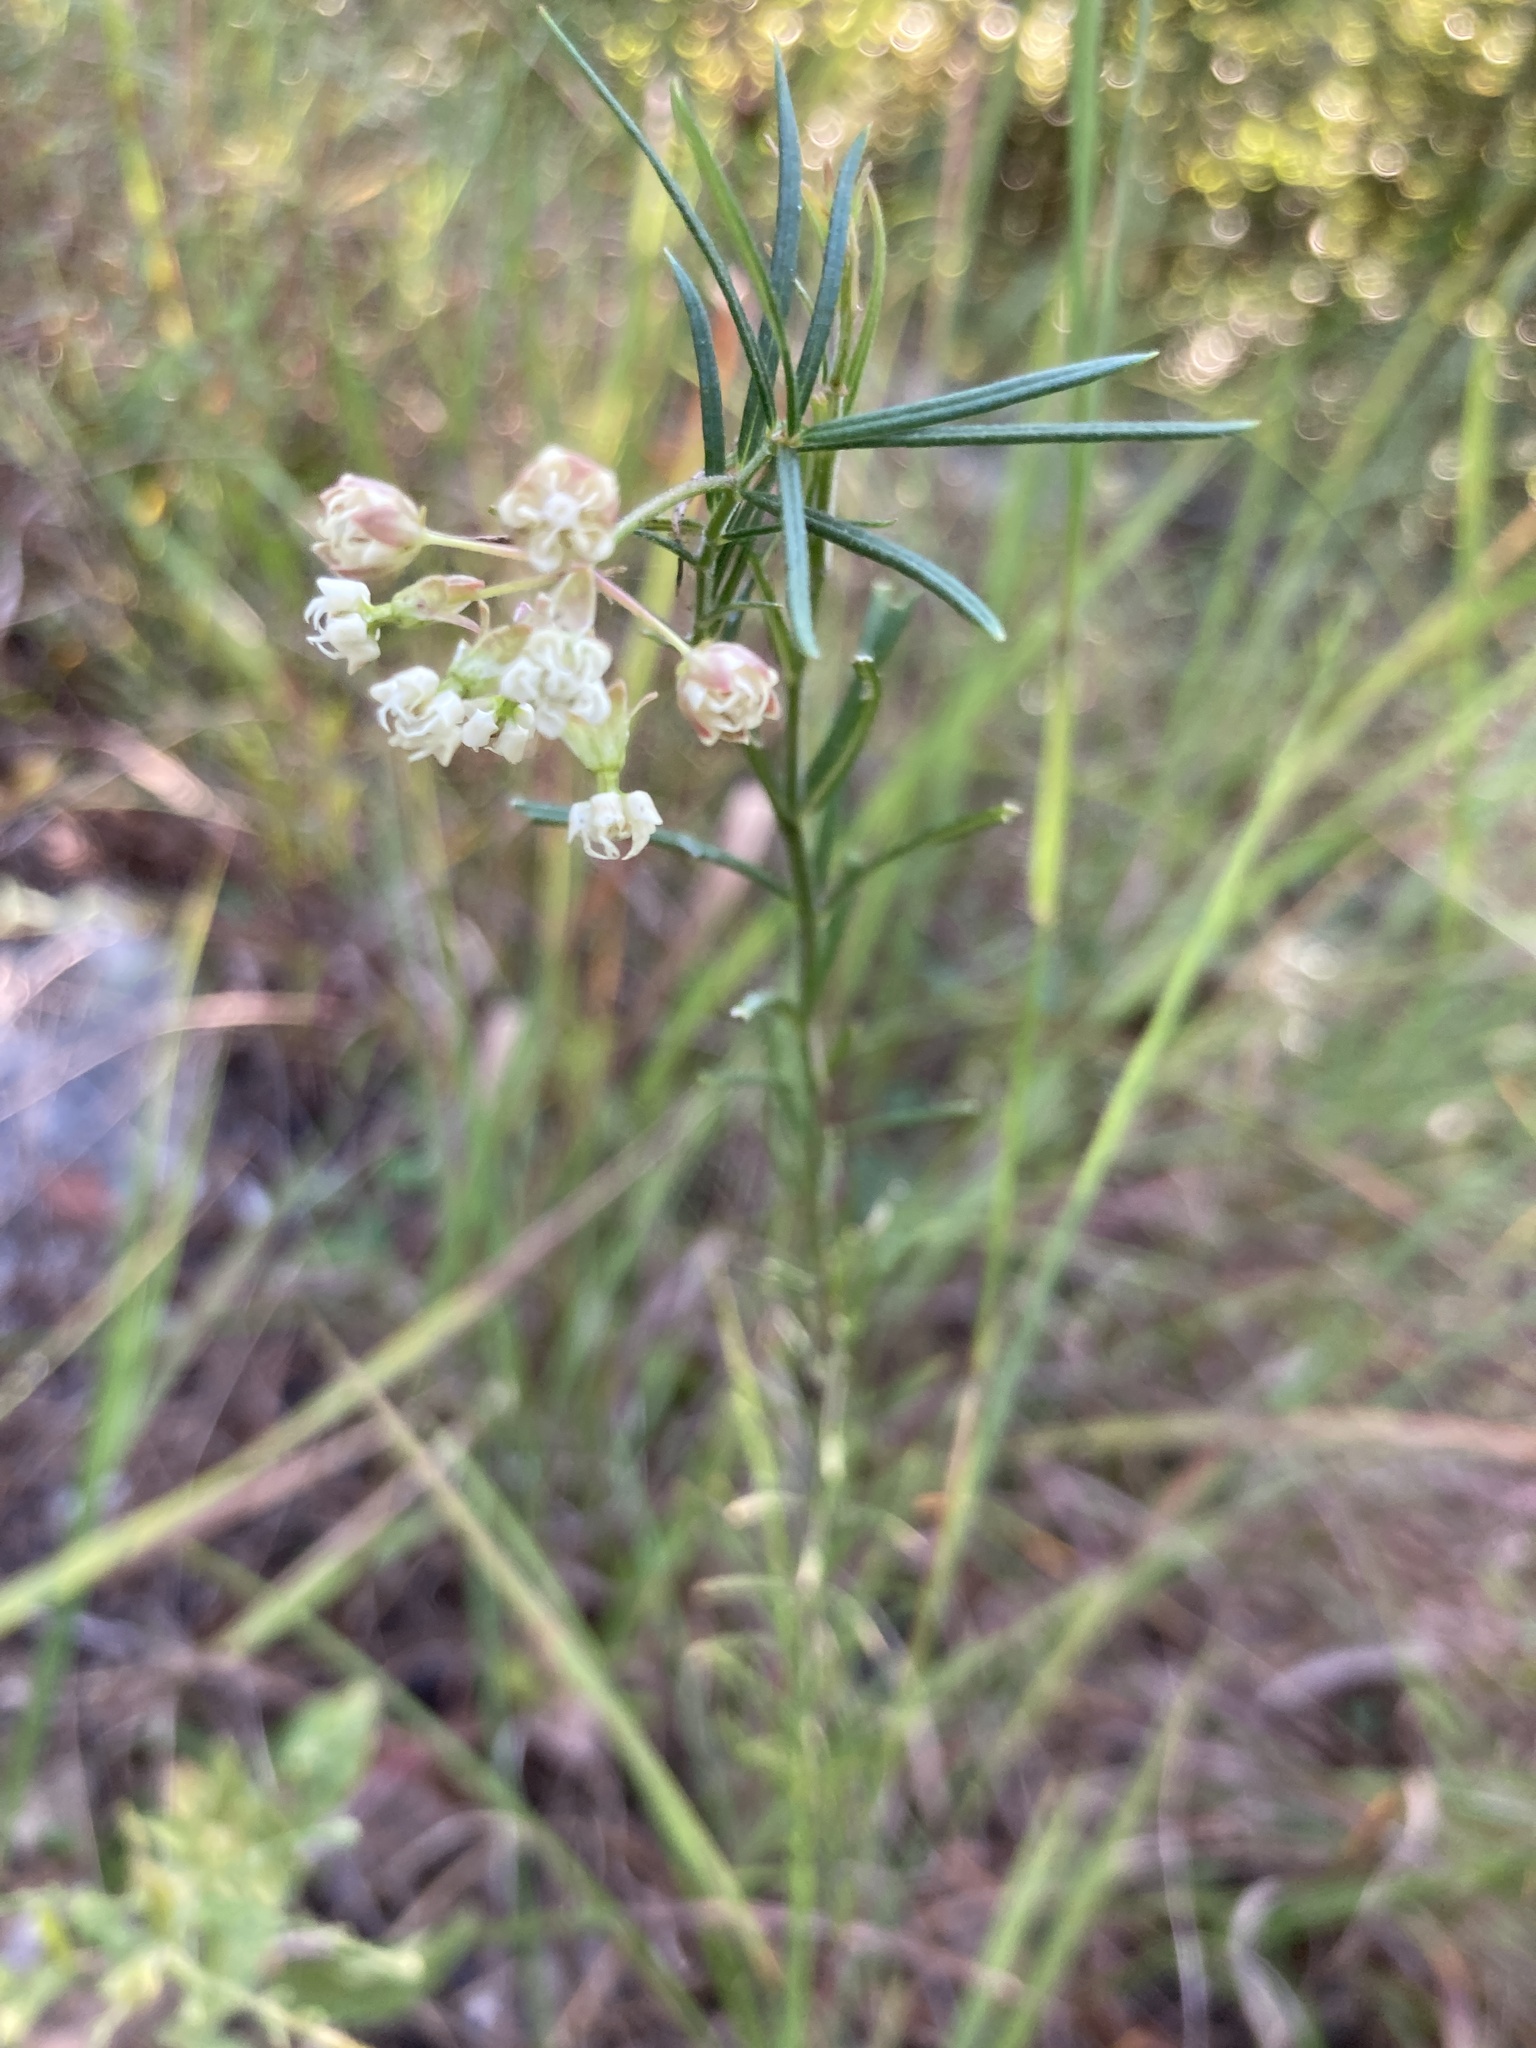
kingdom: Plantae
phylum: Tracheophyta
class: Magnoliopsida
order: Gentianales
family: Apocynaceae
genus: Asclepias
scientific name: Asclepias verticillata
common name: Eastern whorled milkweed
